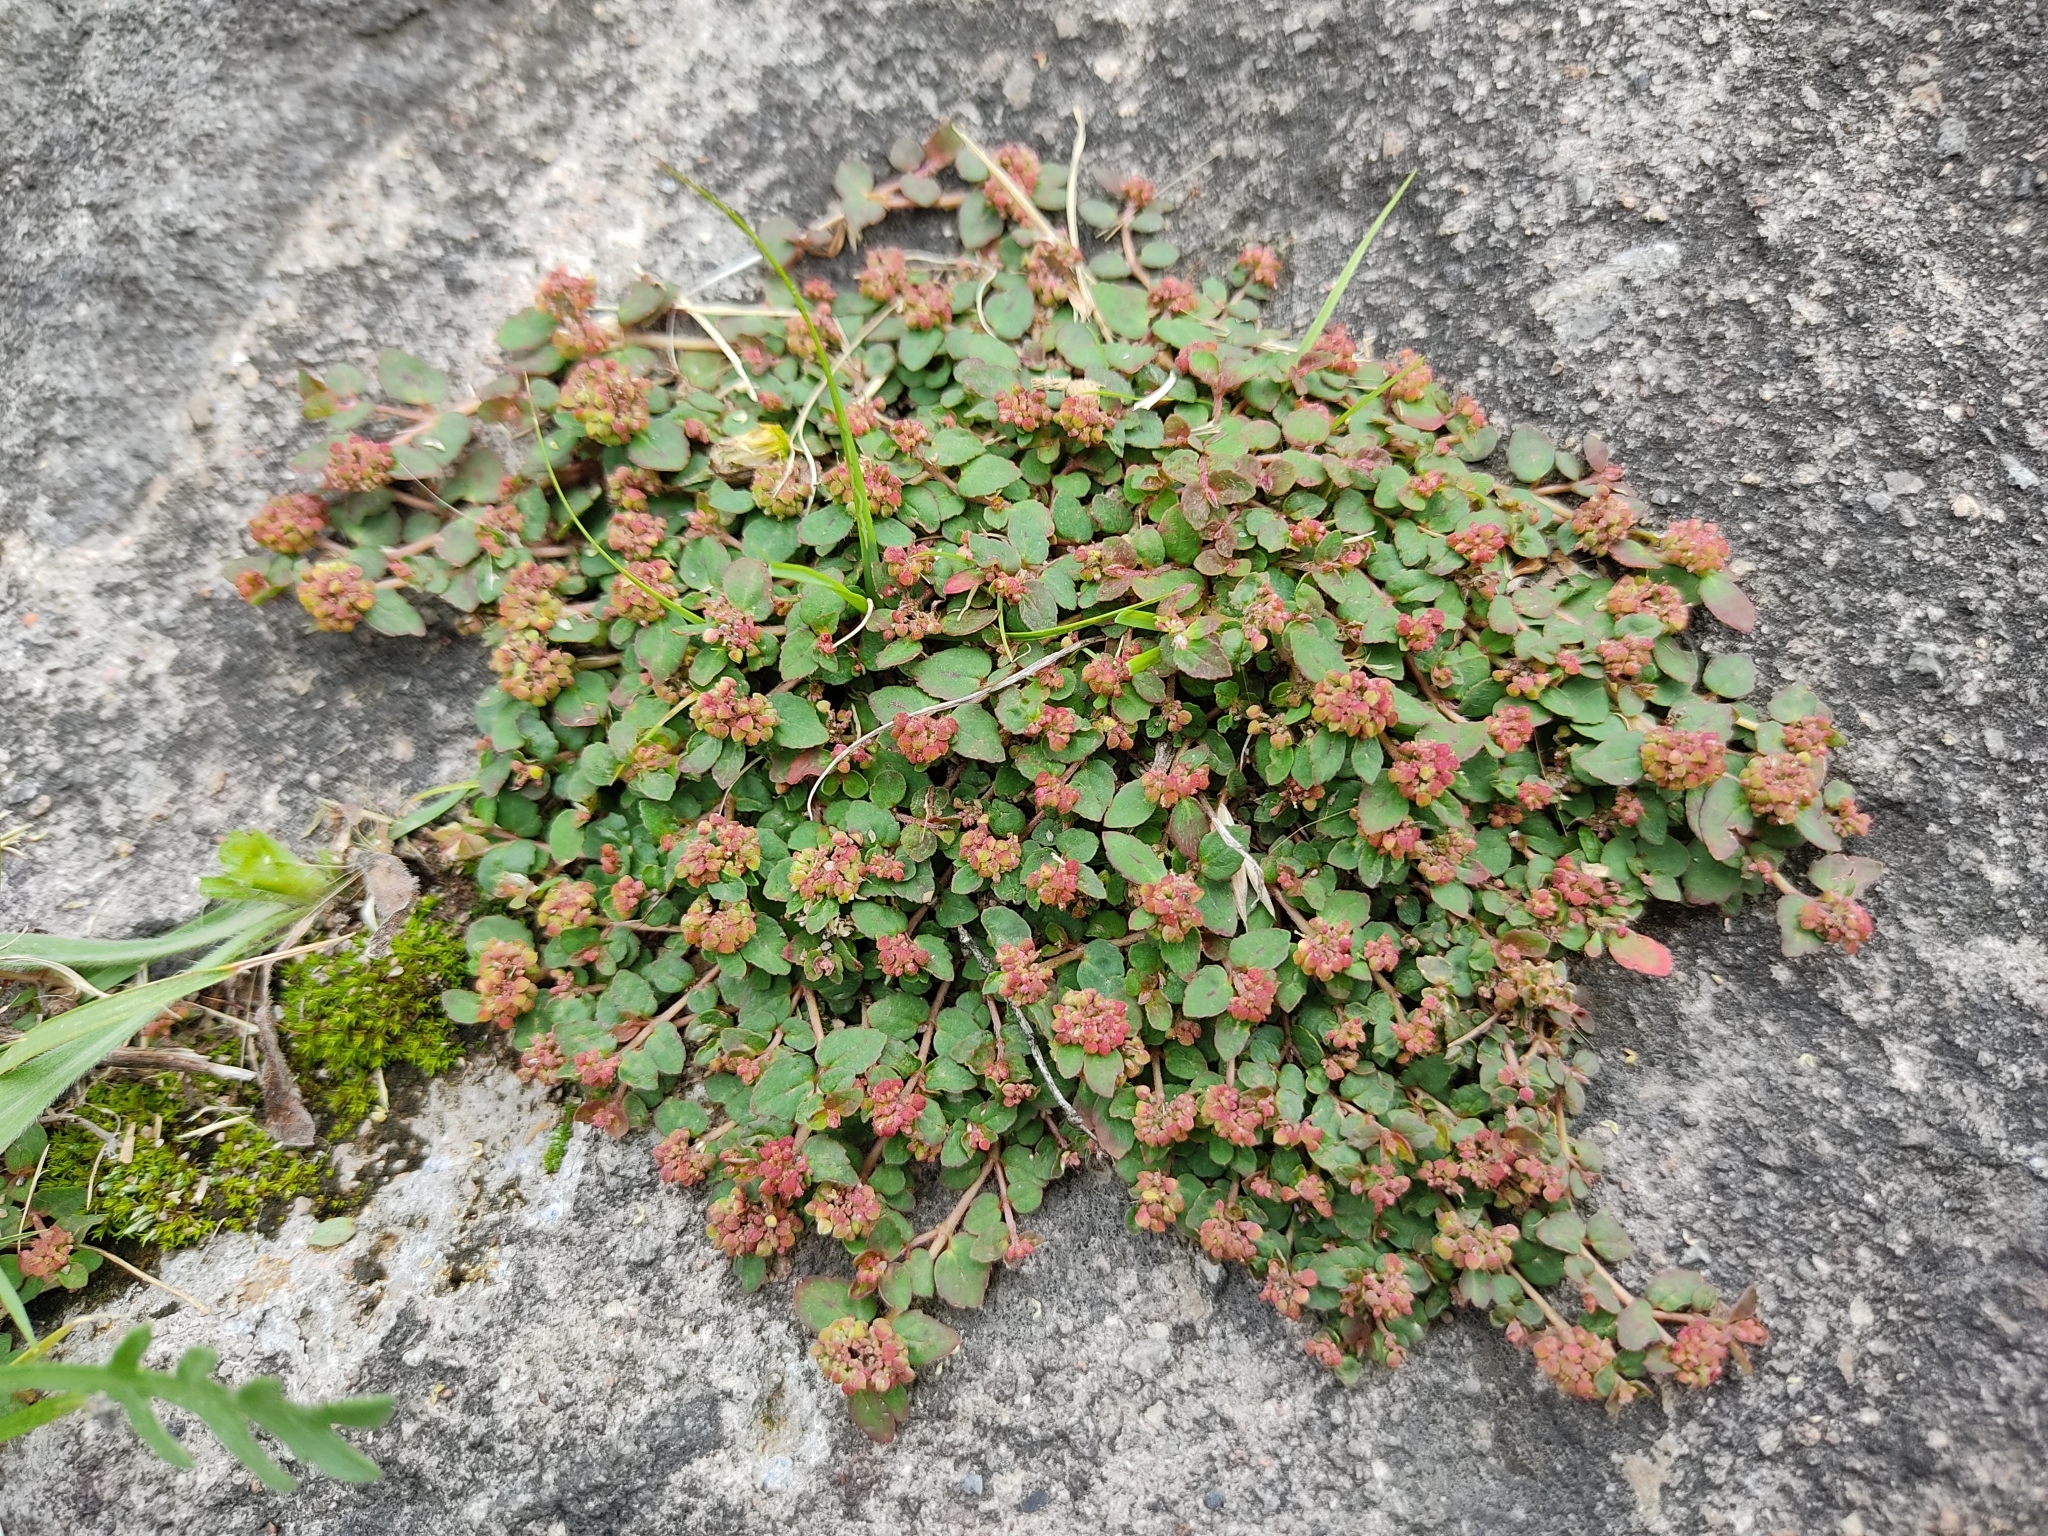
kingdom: Plantae
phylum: Tracheophyta
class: Magnoliopsida
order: Malpighiales
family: Euphorbiaceae
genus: Euphorbia
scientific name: Euphorbia ophthalmica
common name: Florida hammock sandmat
